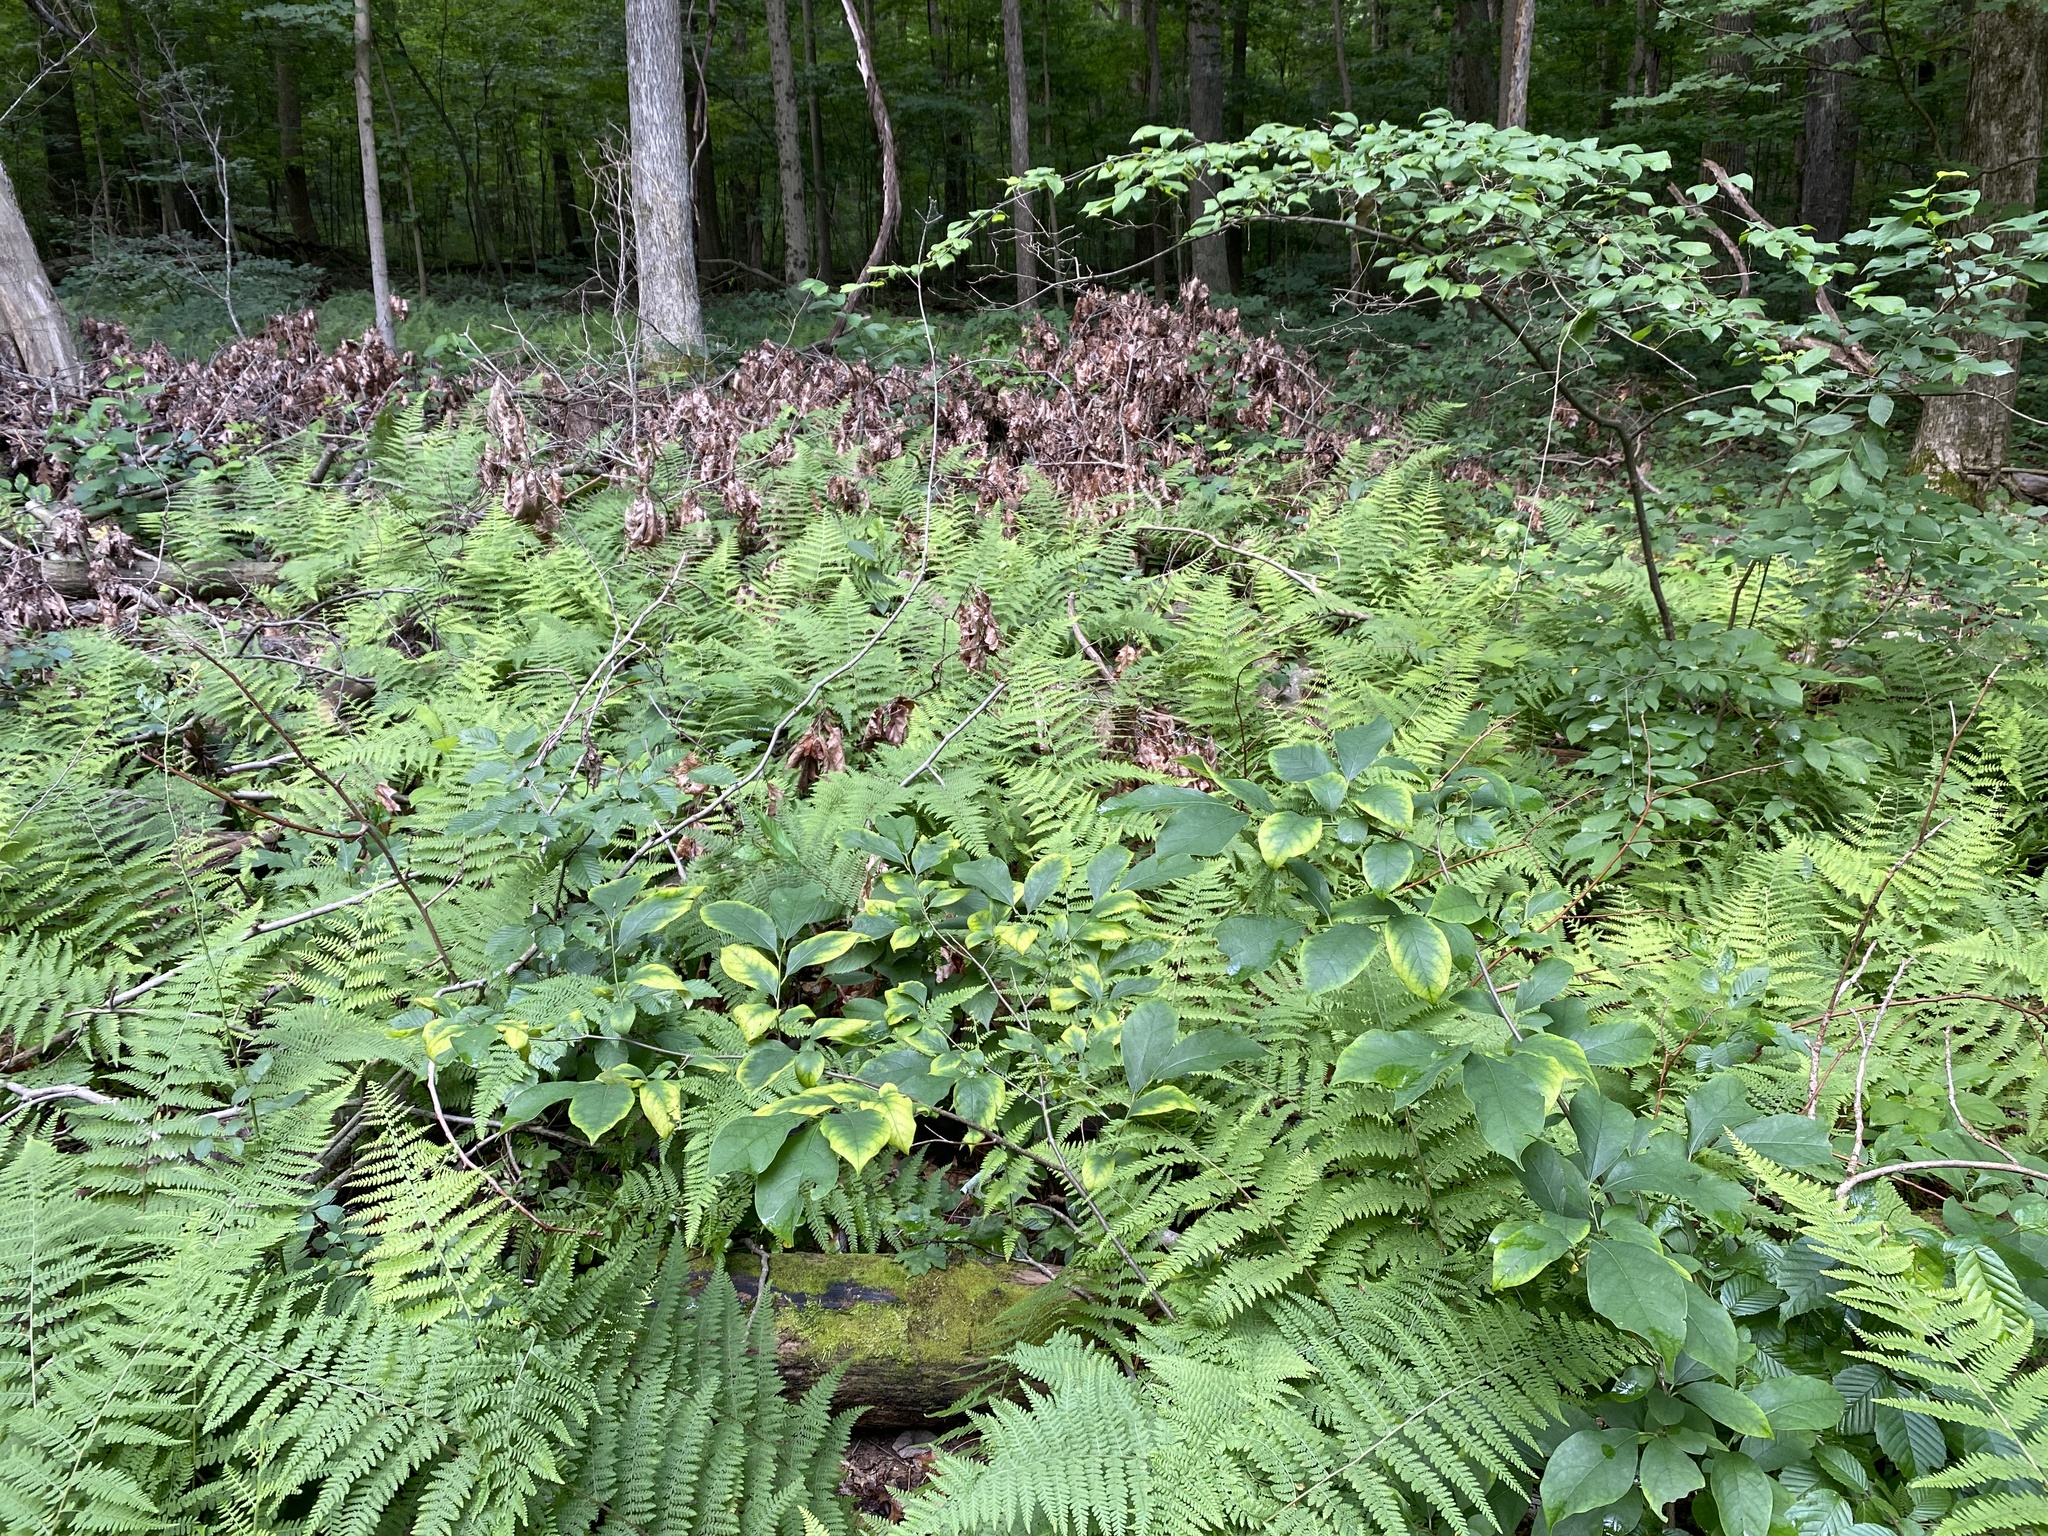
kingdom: Plantae
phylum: Tracheophyta
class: Polypodiopsida
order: Polypodiales
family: Dennstaedtiaceae
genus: Sitobolium
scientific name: Sitobolium punctilobum
